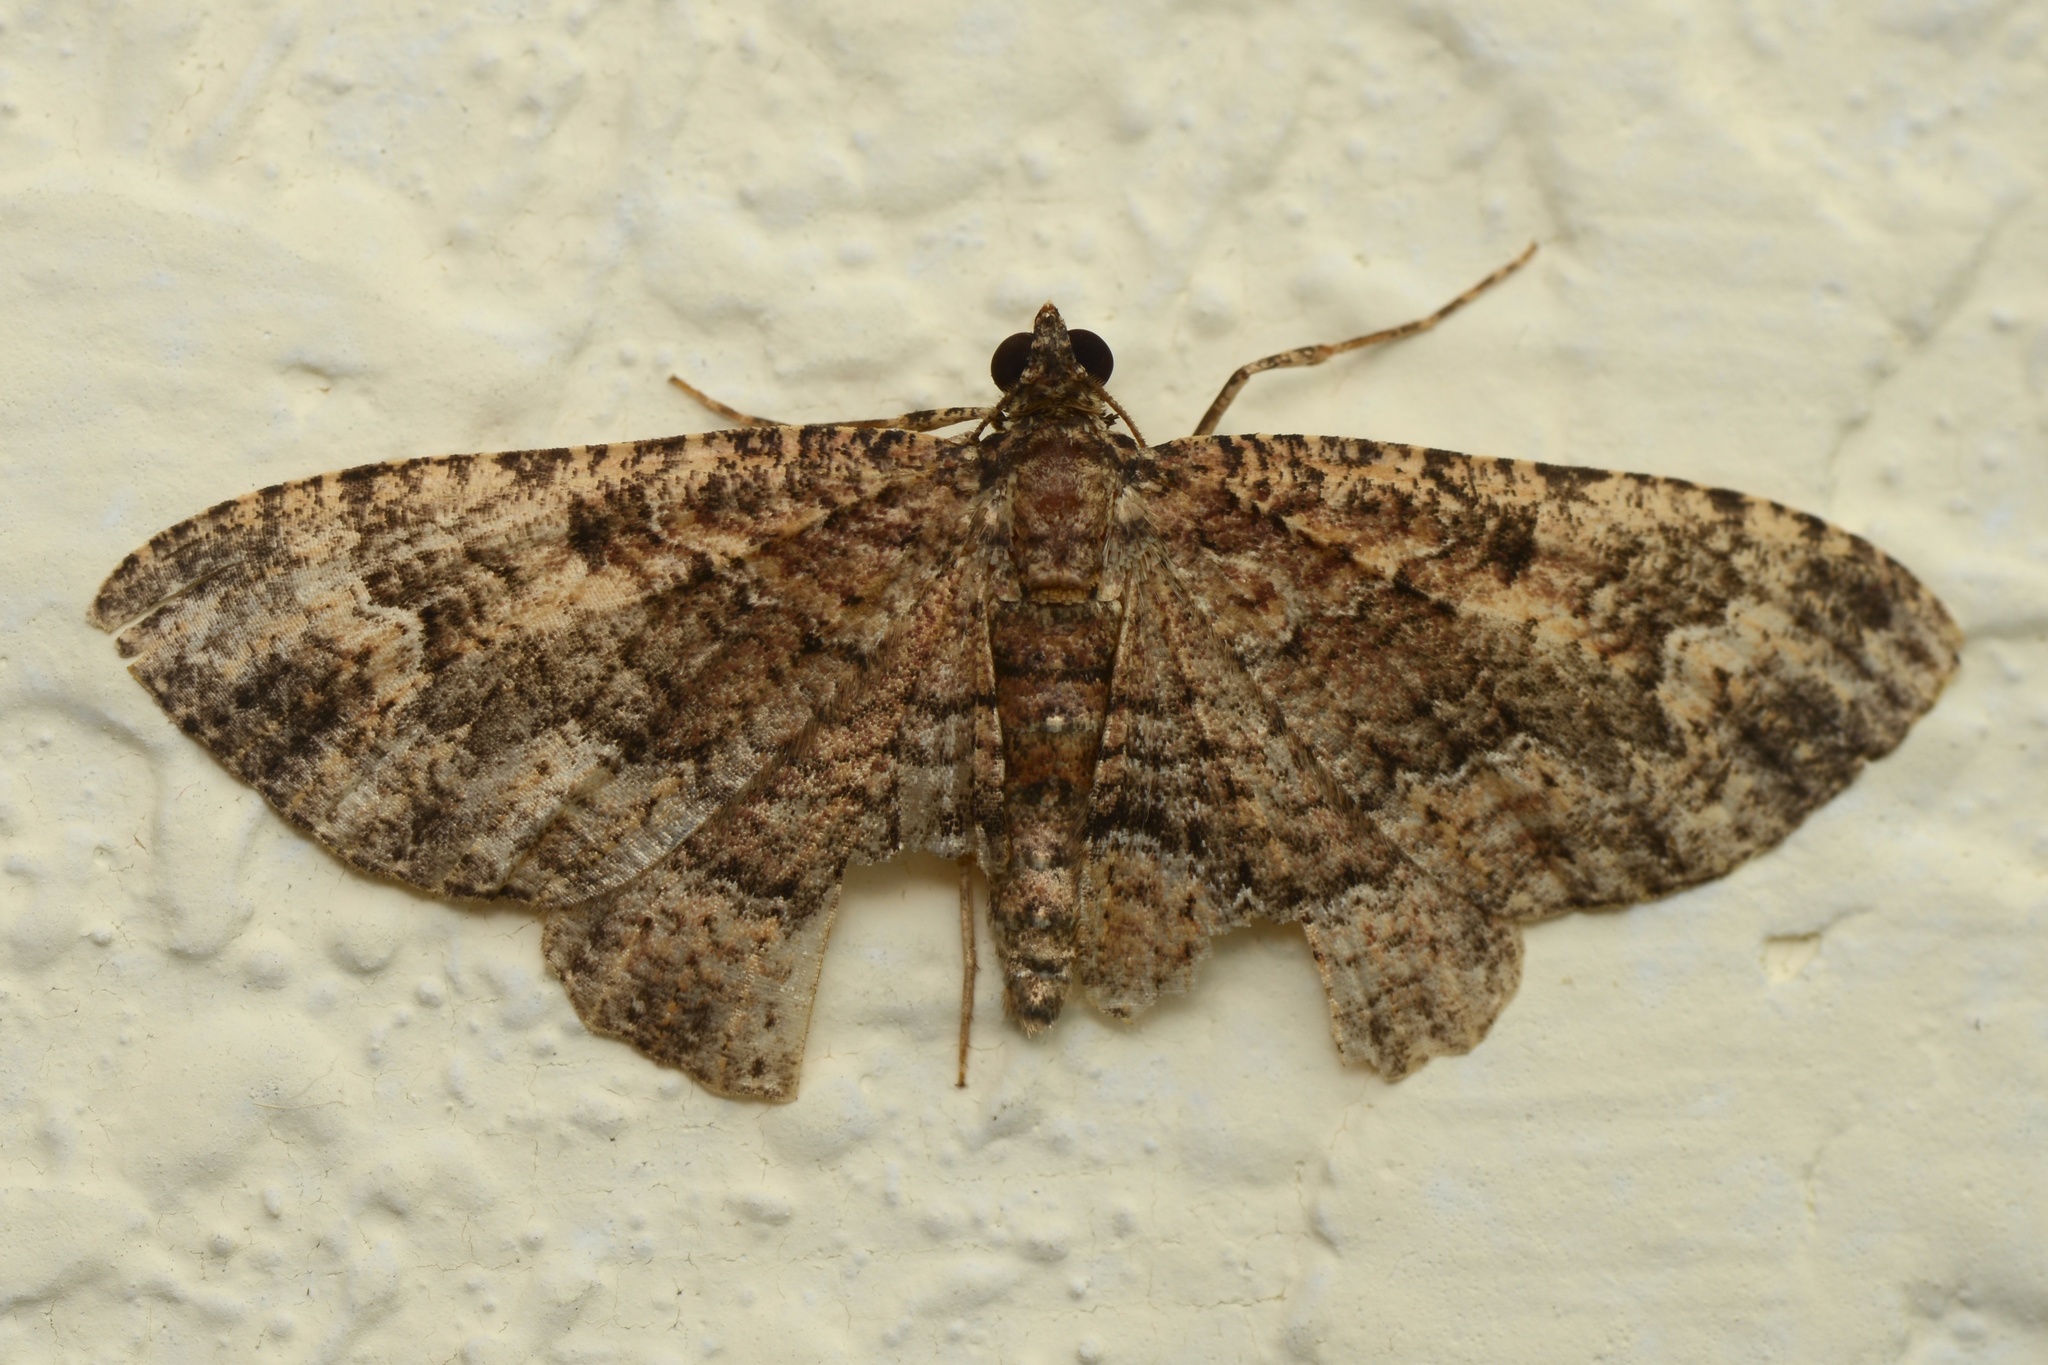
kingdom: Animalia
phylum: Arthropoda
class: Insecta
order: Lepidoptera
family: Geometridae
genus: Disclisioprocta
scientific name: Disclisioprocta stellata
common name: Somber carpet
